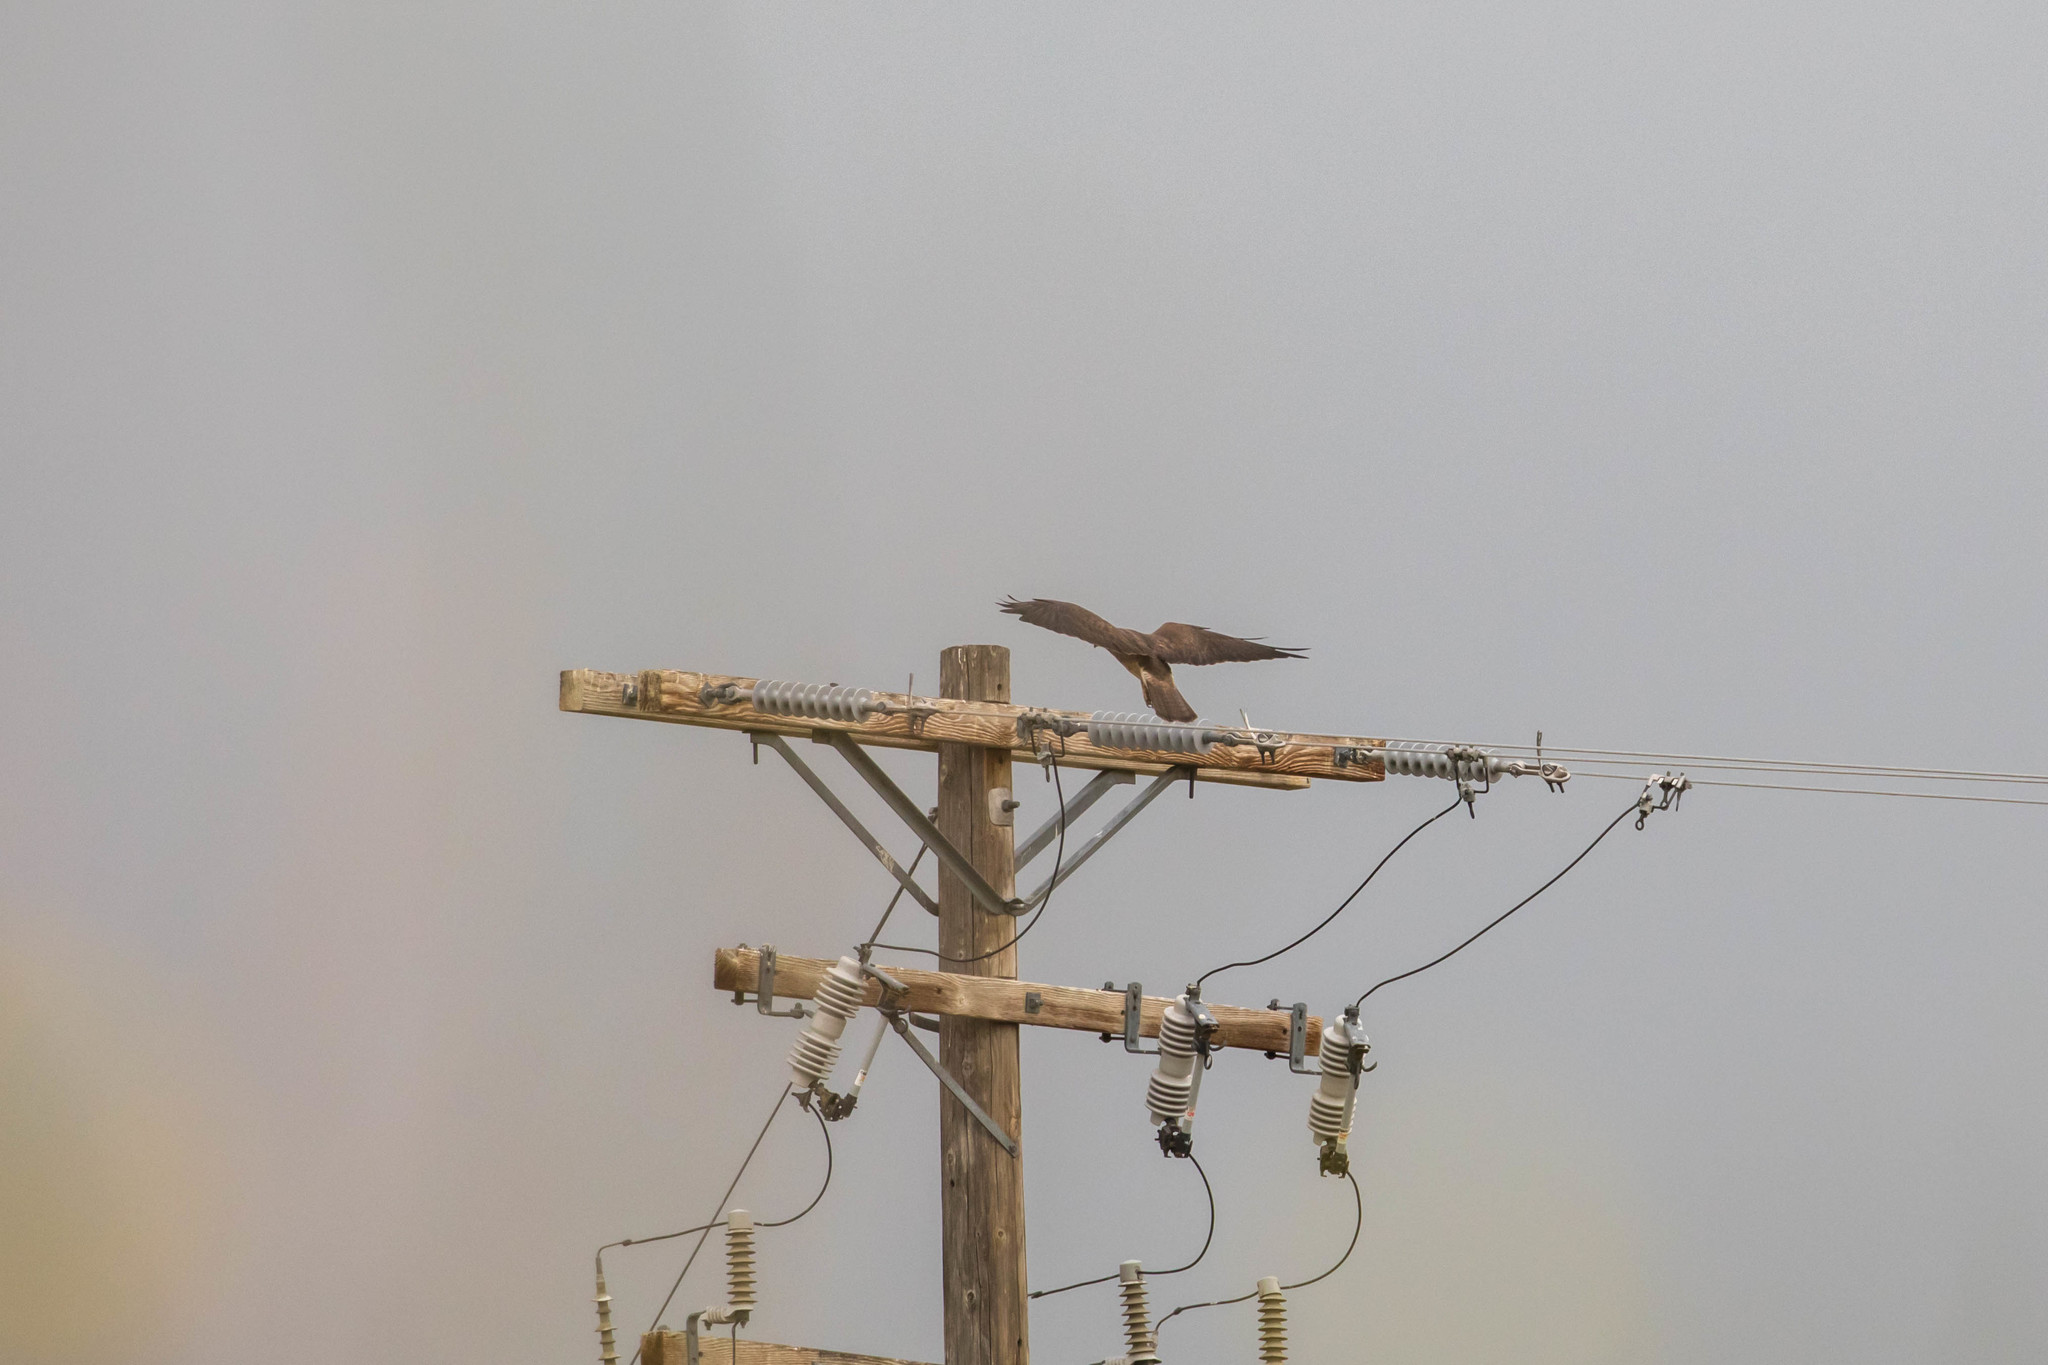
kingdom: Animalia
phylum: Chordata
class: Aves
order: Accipitriformes
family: Accipitridae
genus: Buteo
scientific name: Buteo swainsoni
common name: Swainson's hawk
